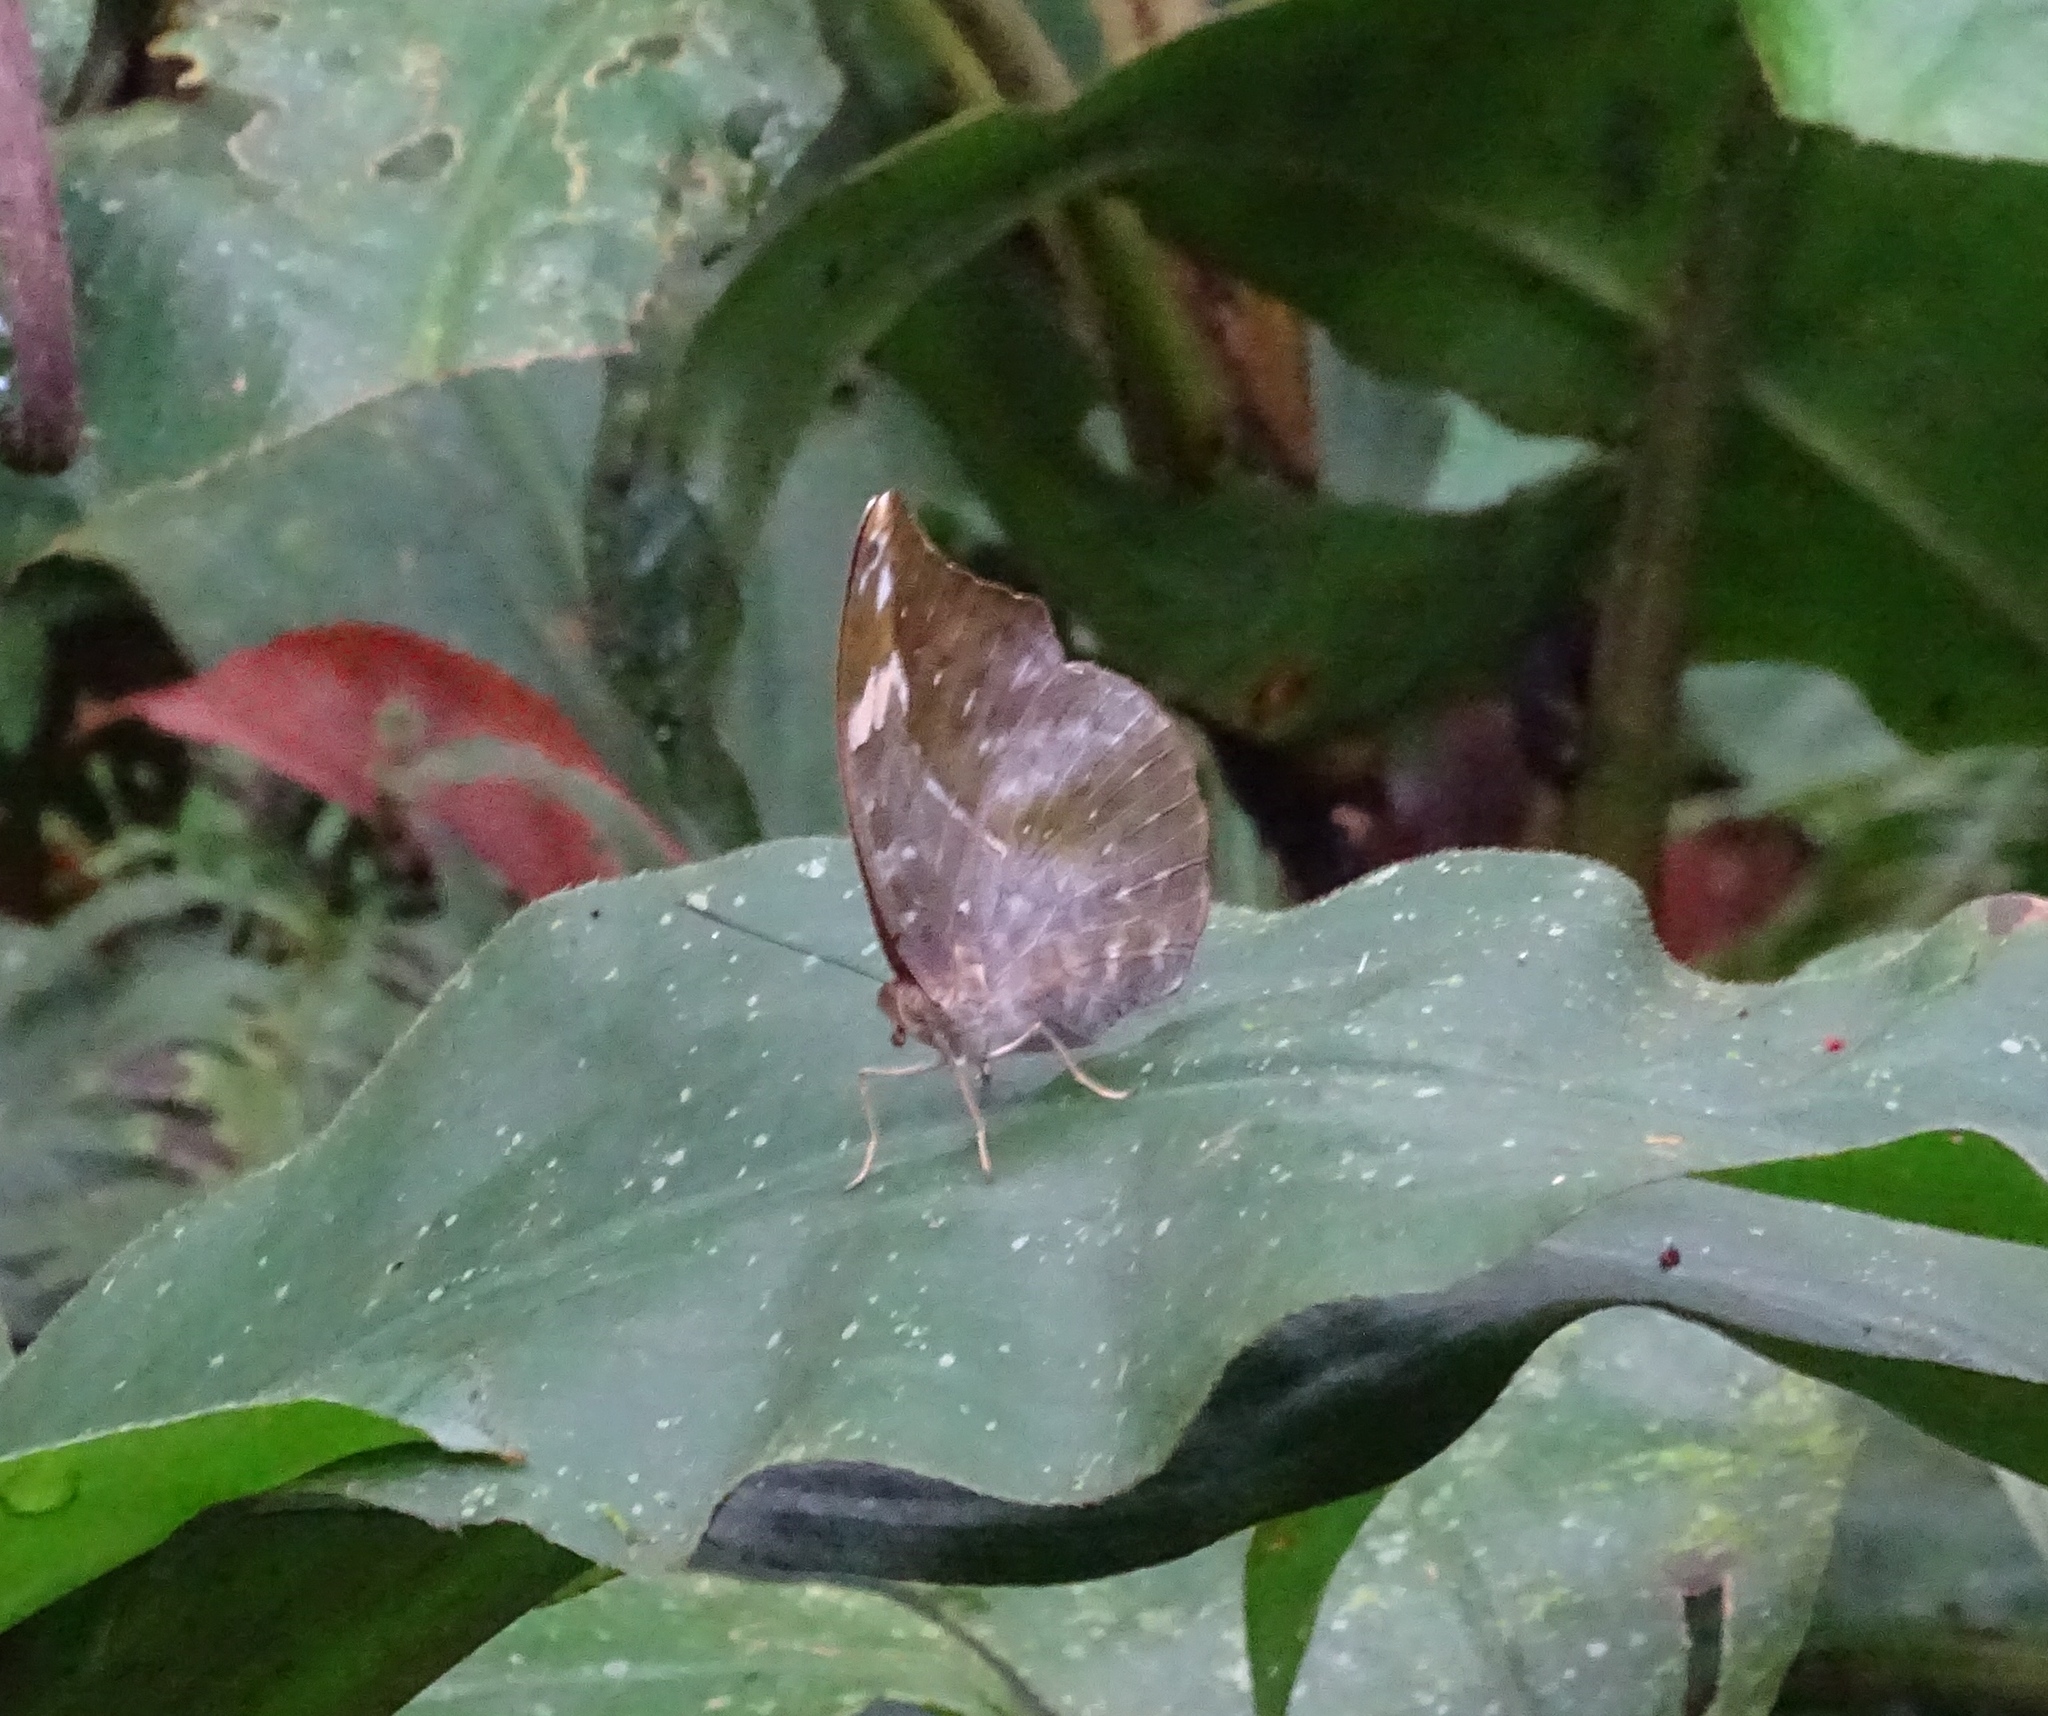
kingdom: Animalia
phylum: Arthropoda
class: Insecta
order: Lepidoptera
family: Nymphalidae
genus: Bebearia
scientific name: Bebearia sophus
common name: Sophus forester
